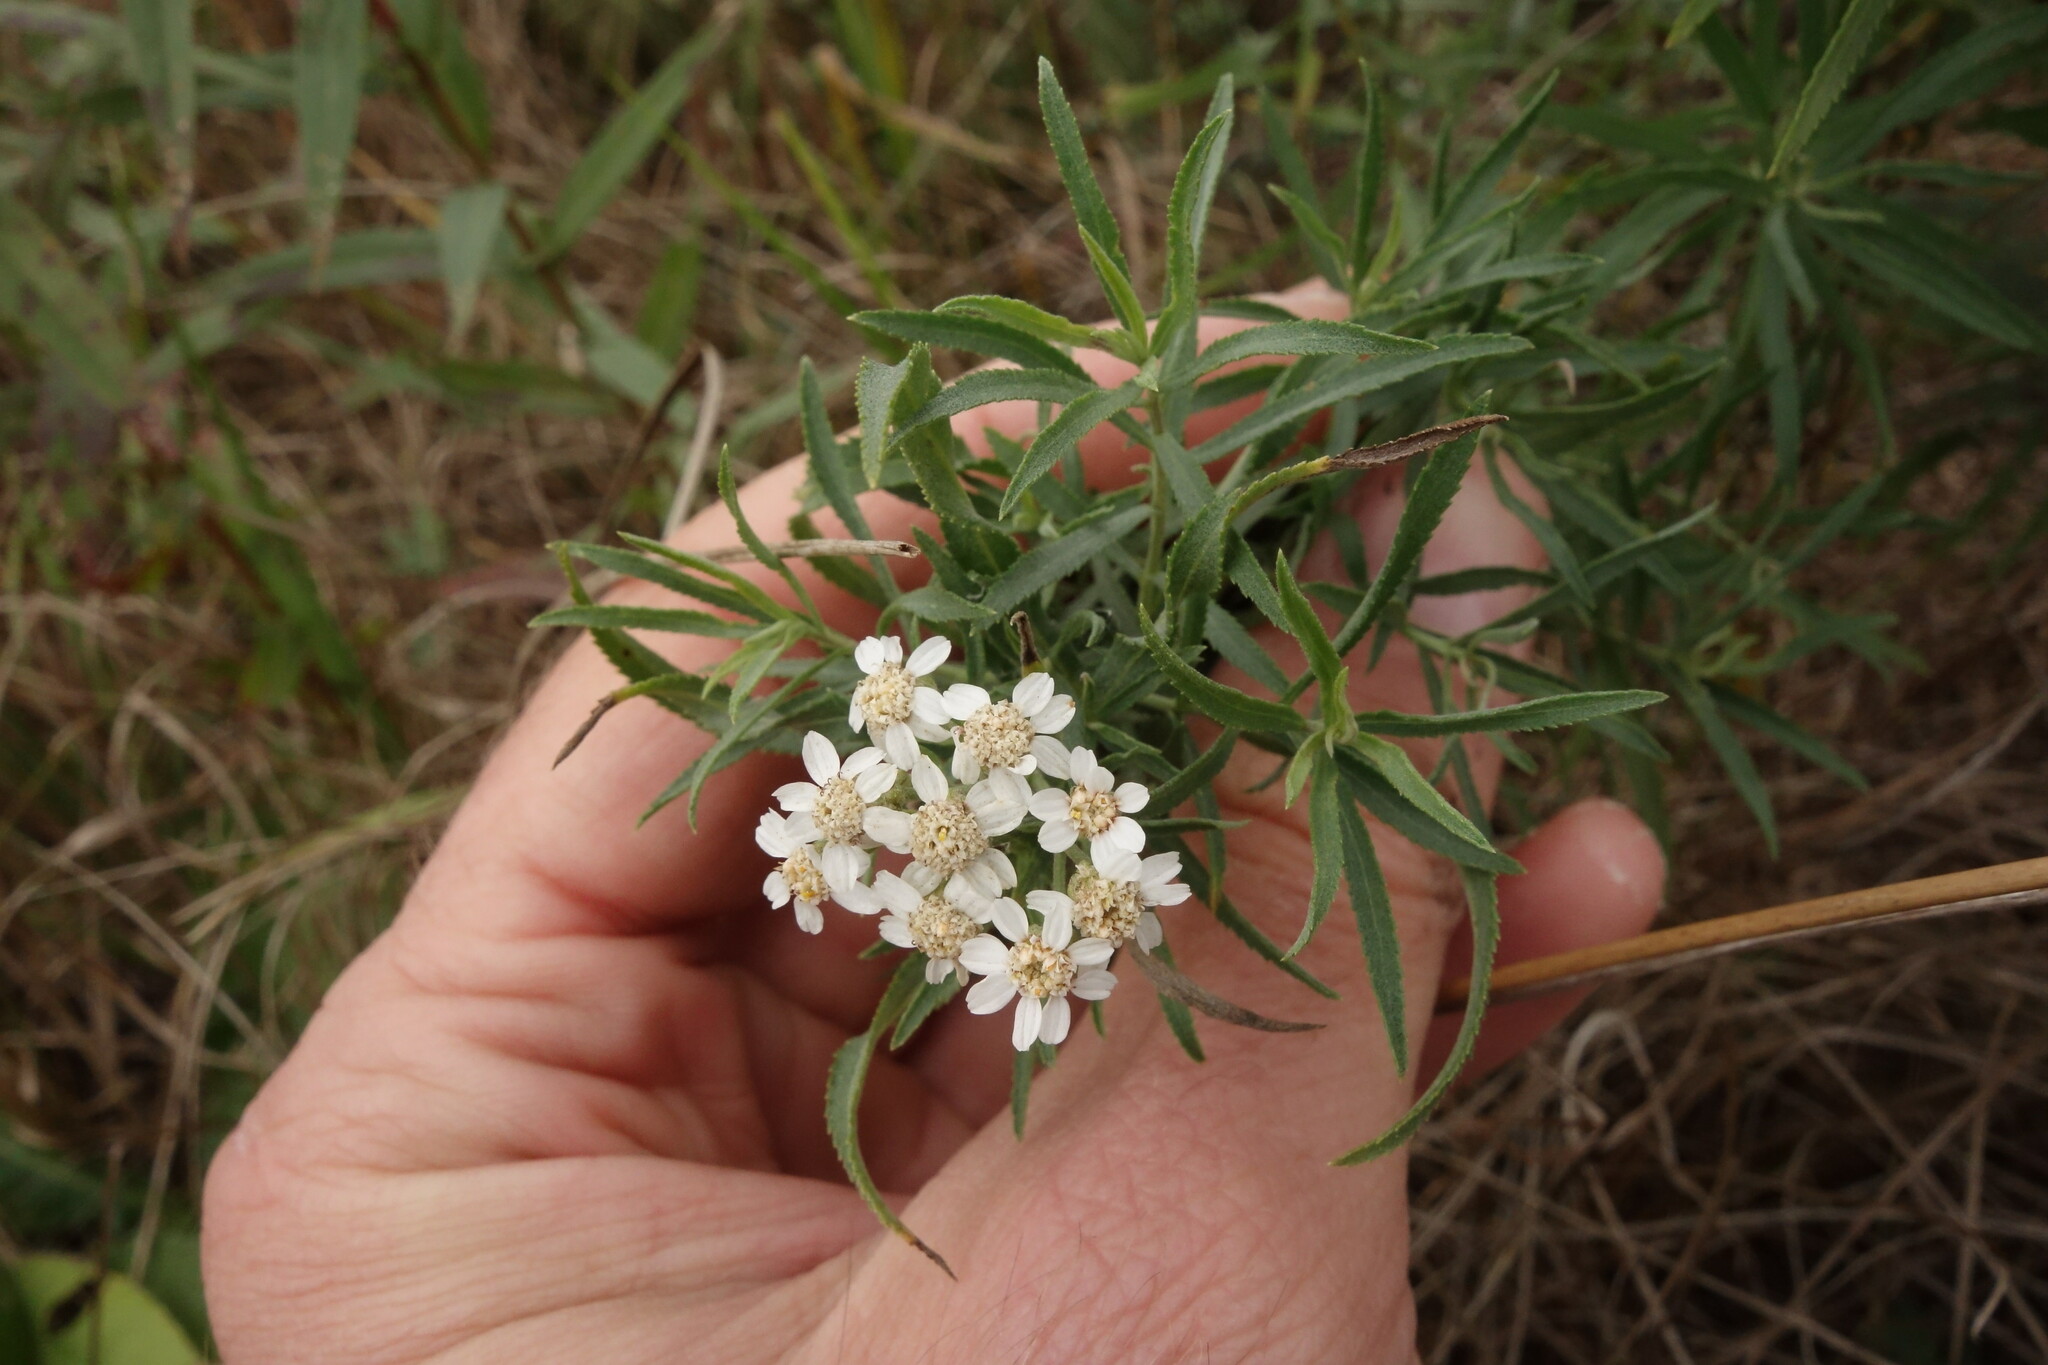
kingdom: Plantae
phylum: Tracheophyta
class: Magnoliopsida
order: Asterales
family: Asteraceae
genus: Achillea
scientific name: Achillea salicifolia
